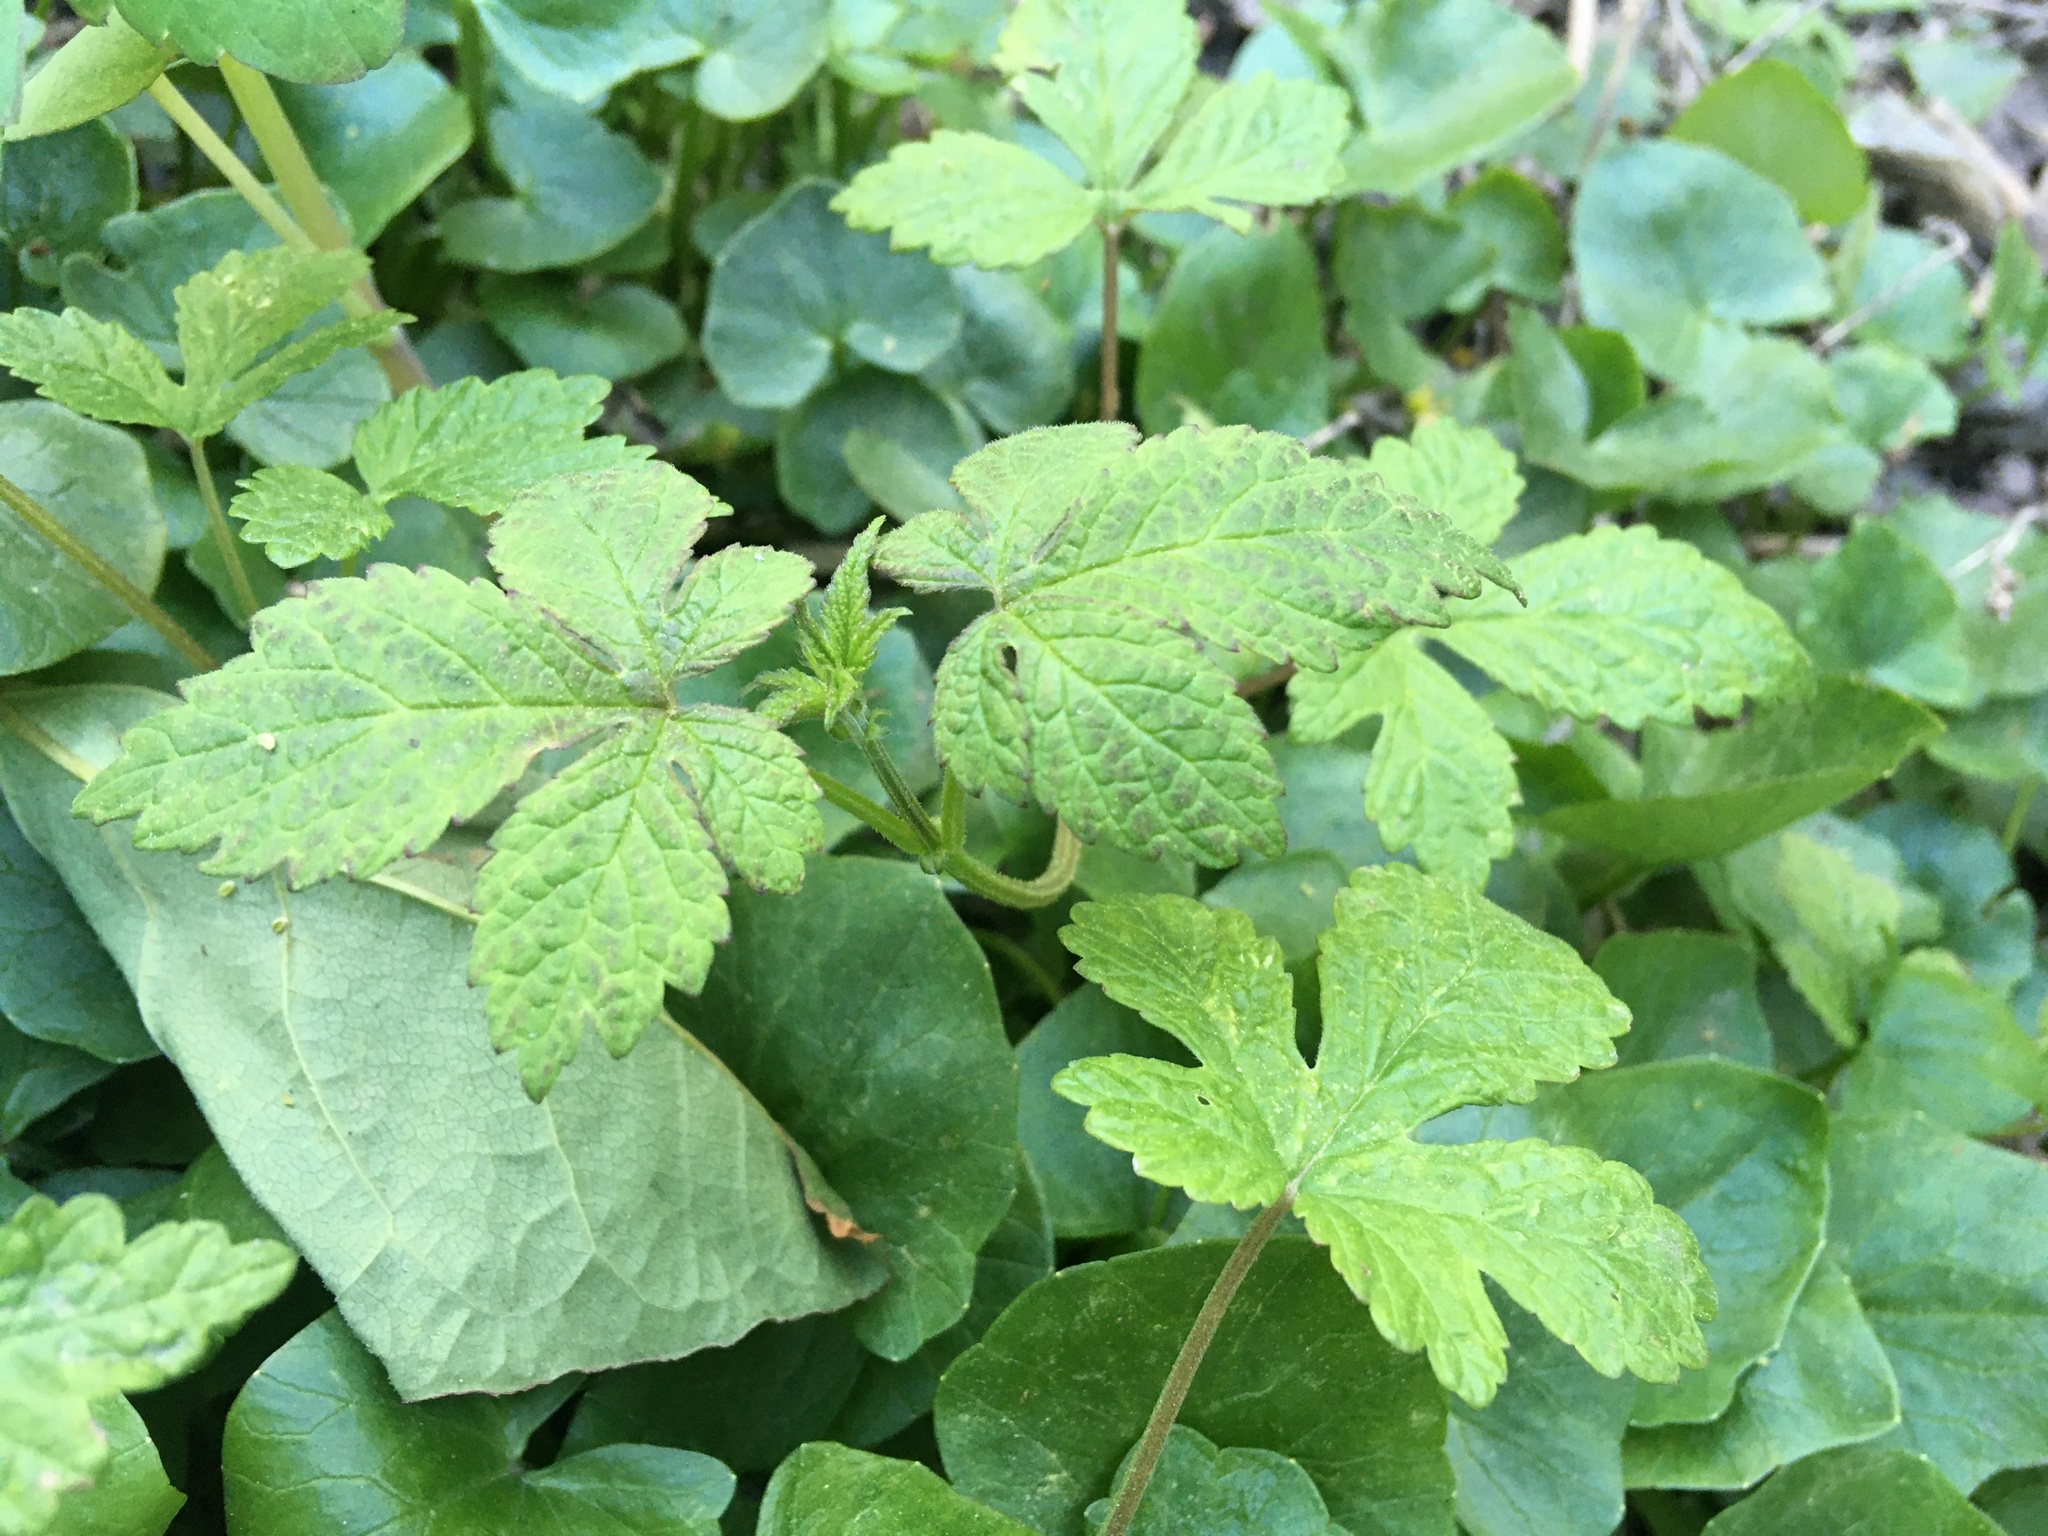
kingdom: Plantae
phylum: Tracheophyta
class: Magnoliopsida
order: Rosales
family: Cannabaceae
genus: Humulus
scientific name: Humulus scandens
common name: Japanese hop
